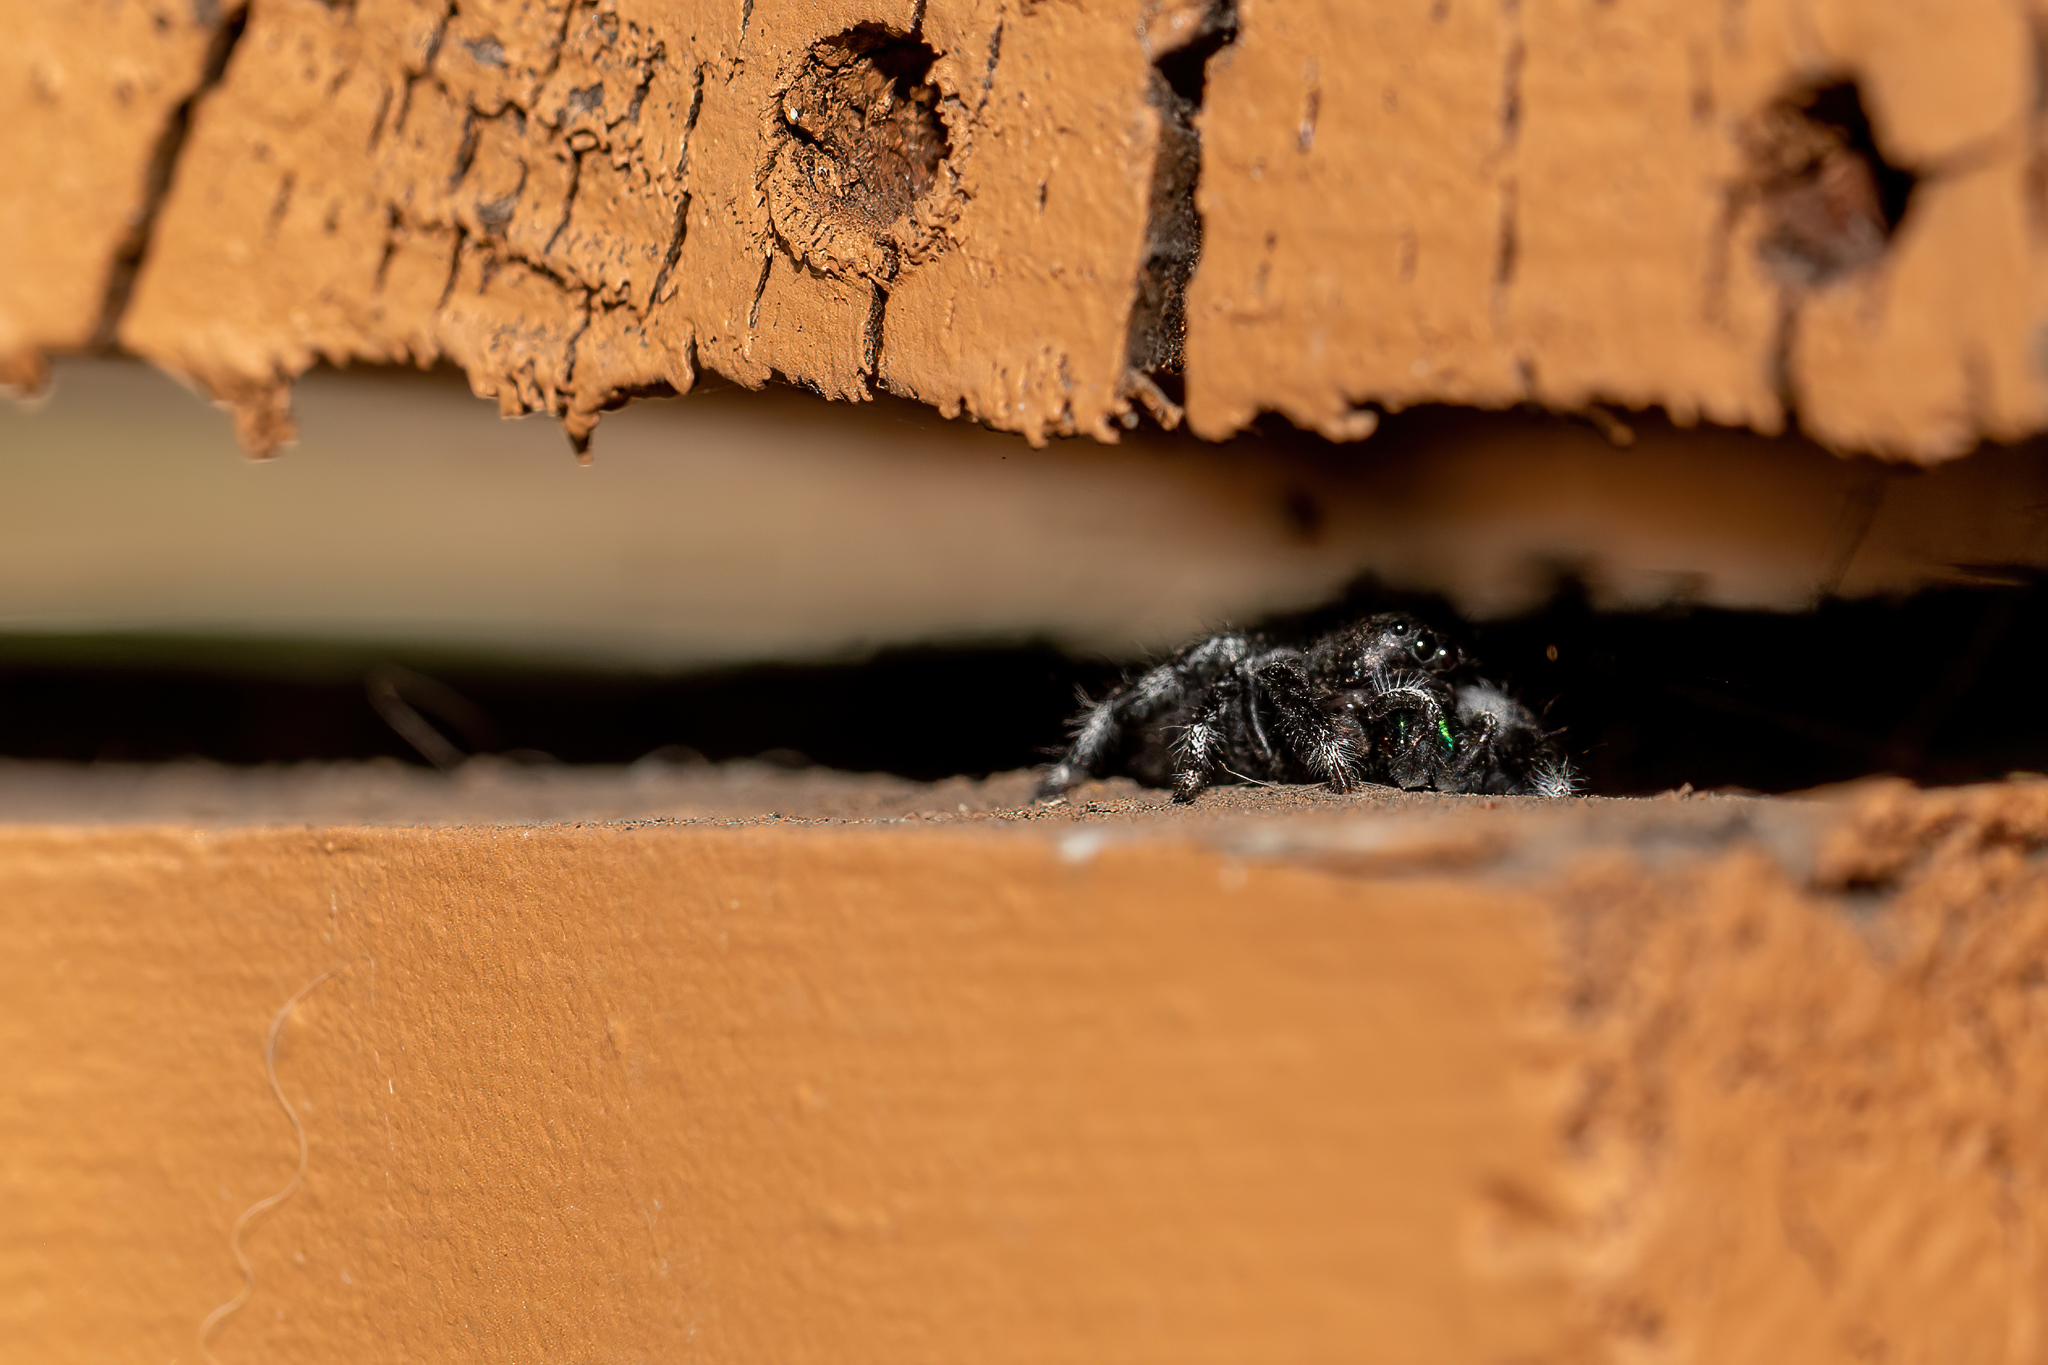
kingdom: Animalia
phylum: Arthropoda
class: Arachnida
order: Araneae
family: Salticidae
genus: Phidippus
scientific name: Phidippus audax
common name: Bold jumper
